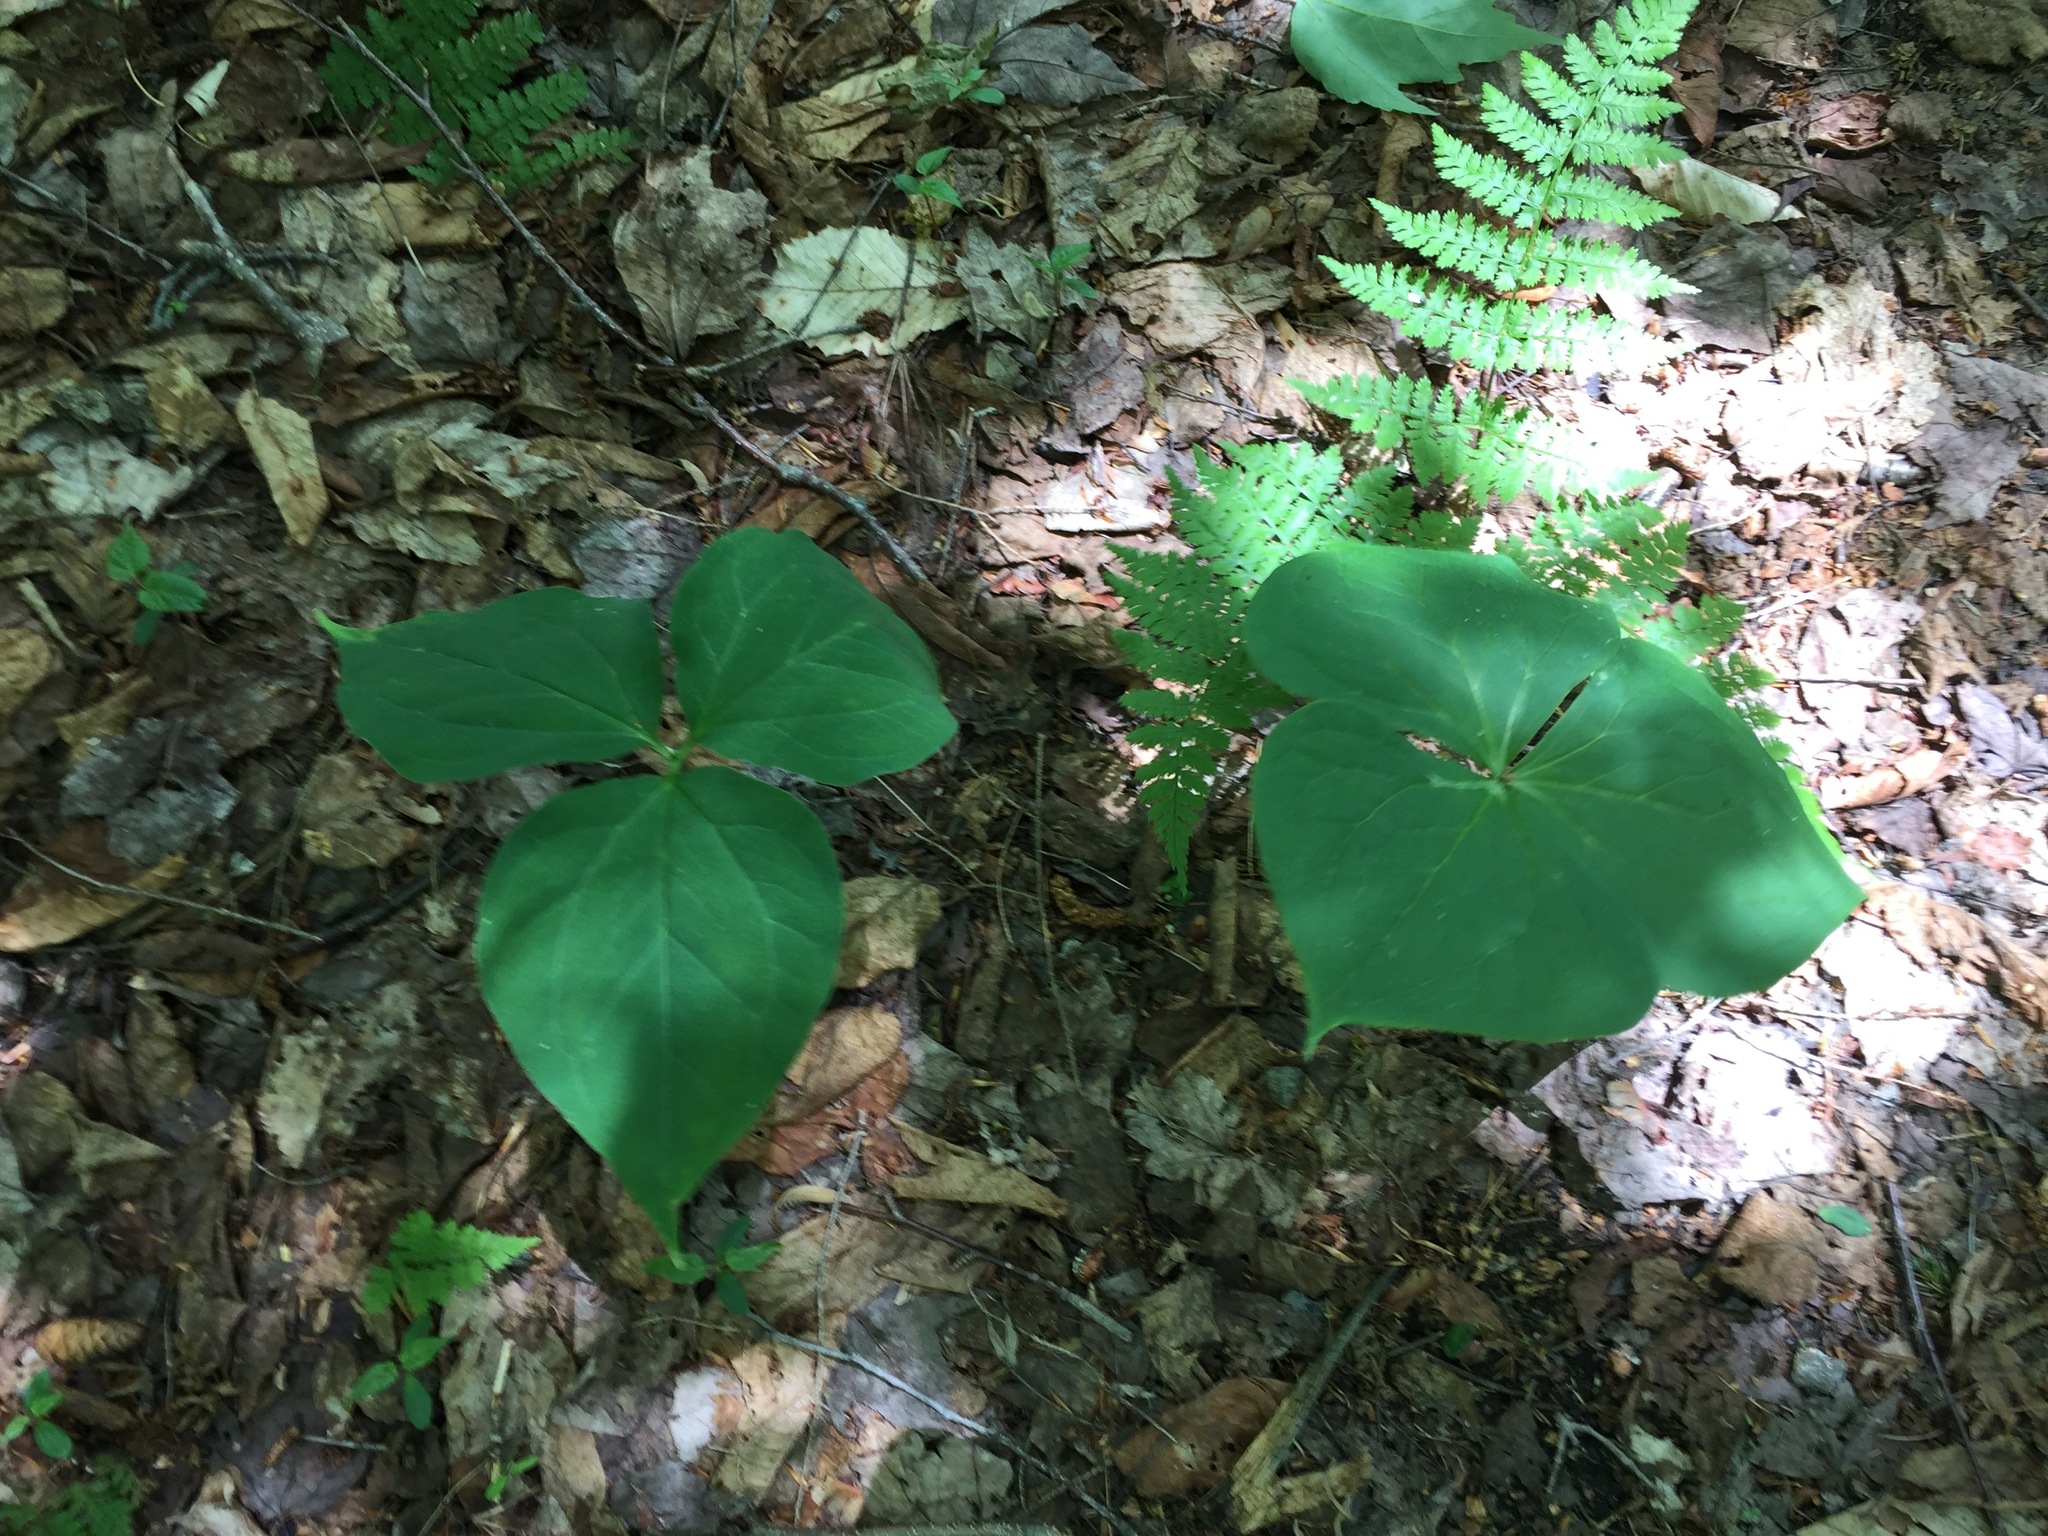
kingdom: Plantae
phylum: Tracheophyta
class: Liliopsida
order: Liliales
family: Melanthiaceae
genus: Trillium
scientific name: Trillium erectum
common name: Purple trillium
